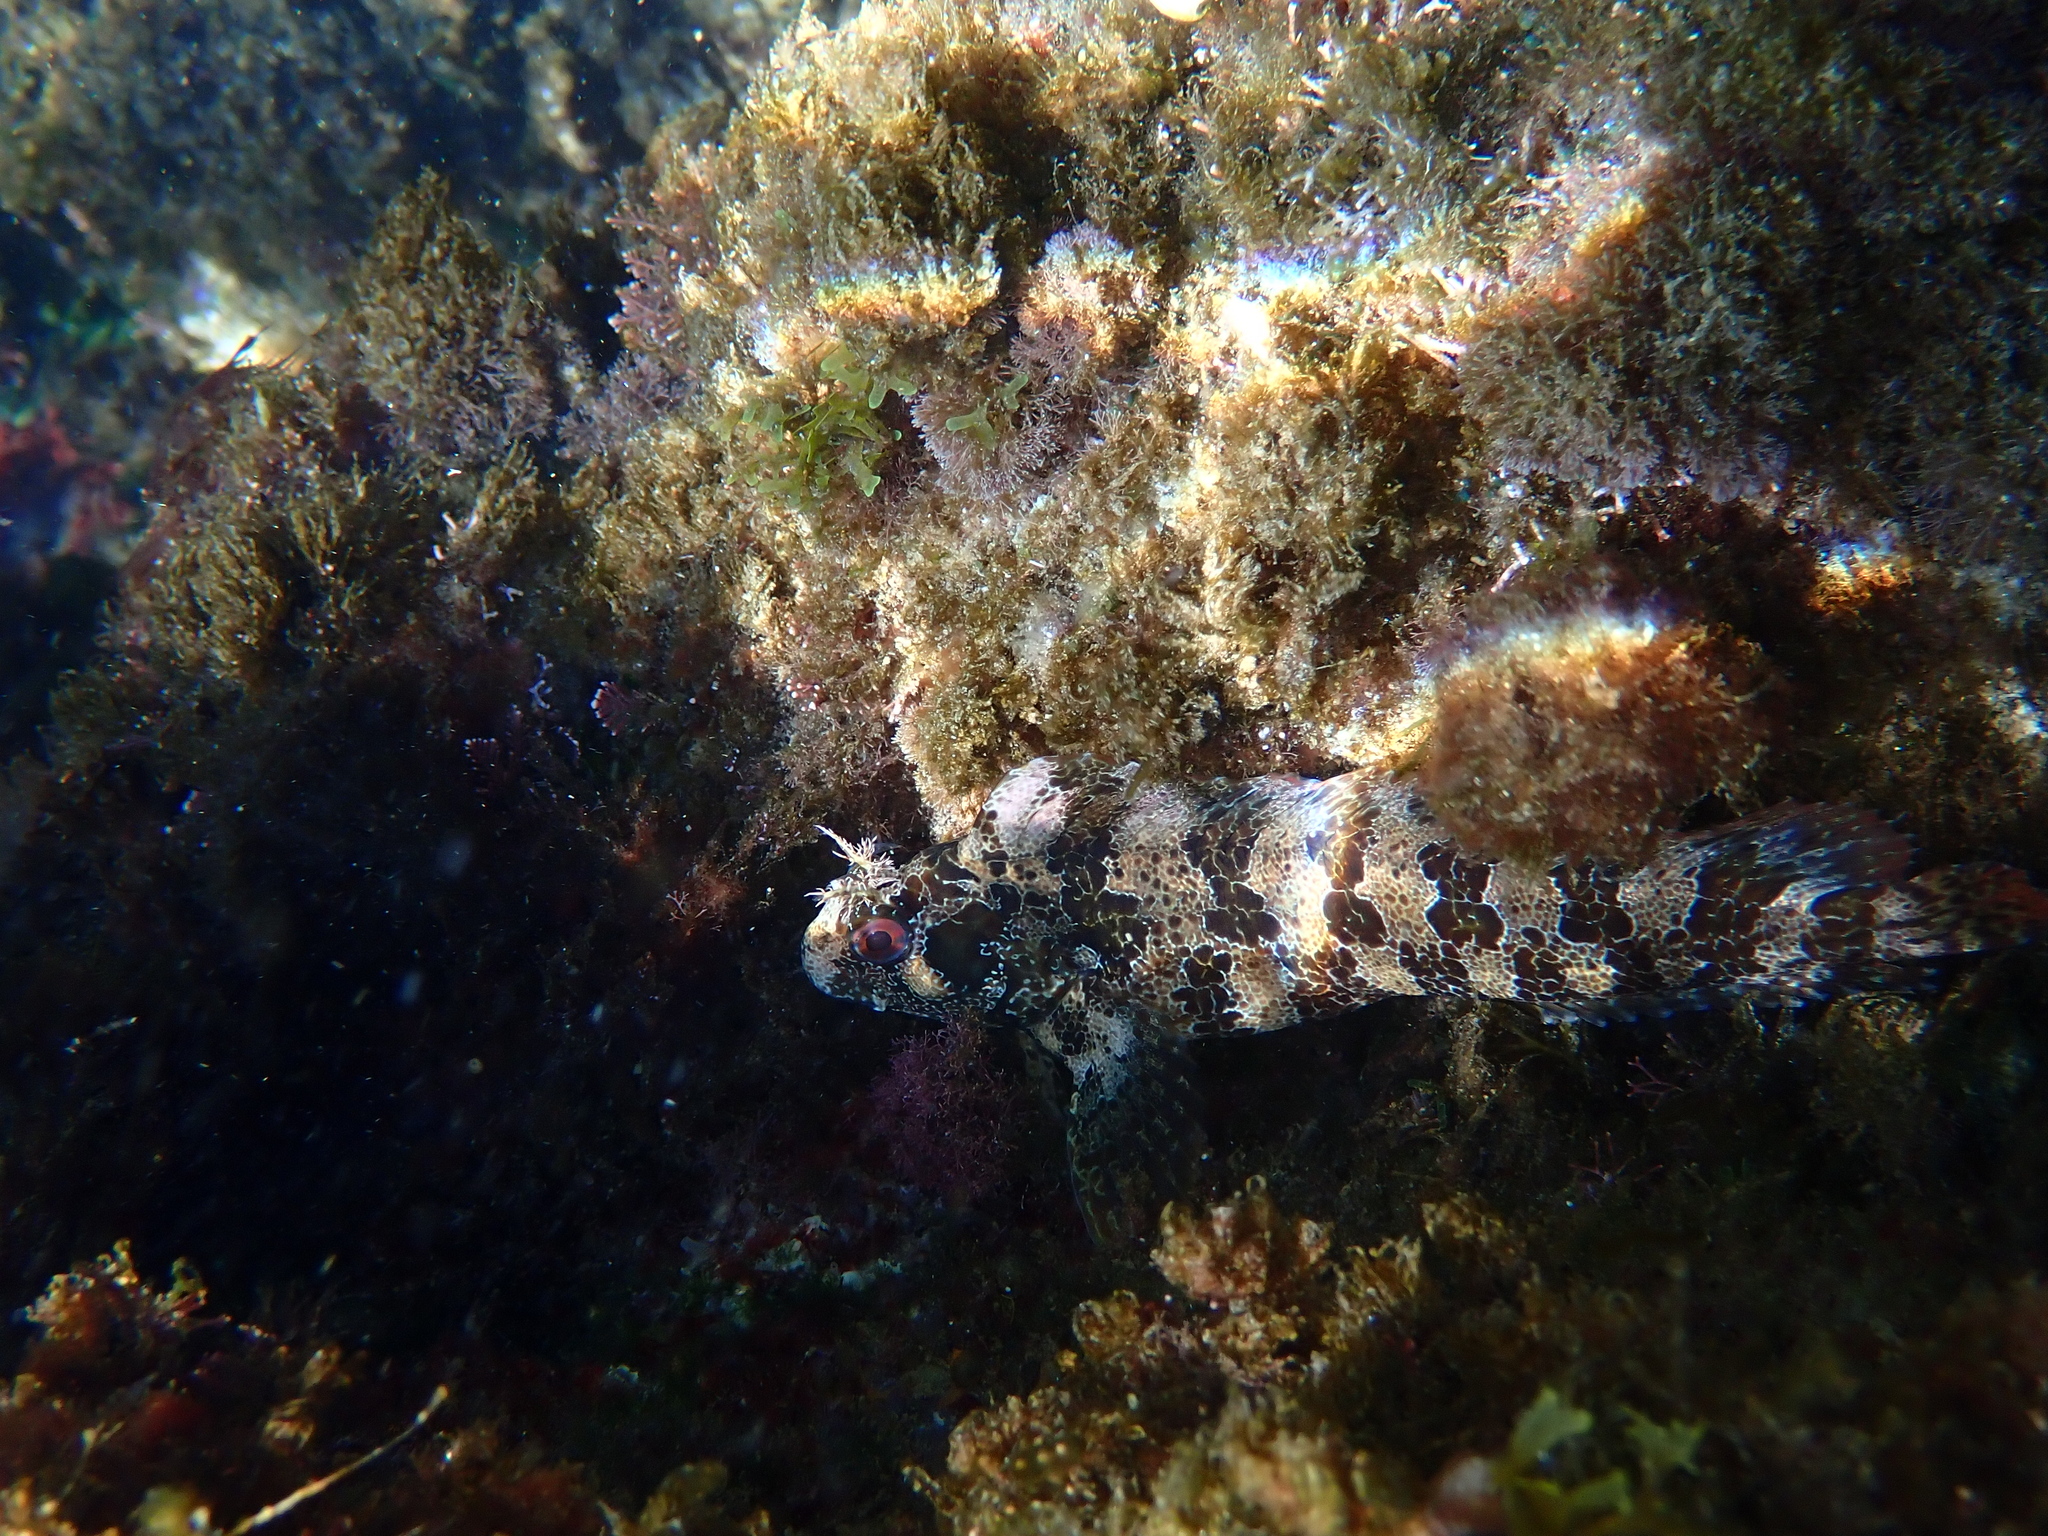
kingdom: Animalia
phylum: Chordata
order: Perciformes
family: Blenniidae
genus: Parablennius
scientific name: Parablennius gattorugine
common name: Tompot blenny
